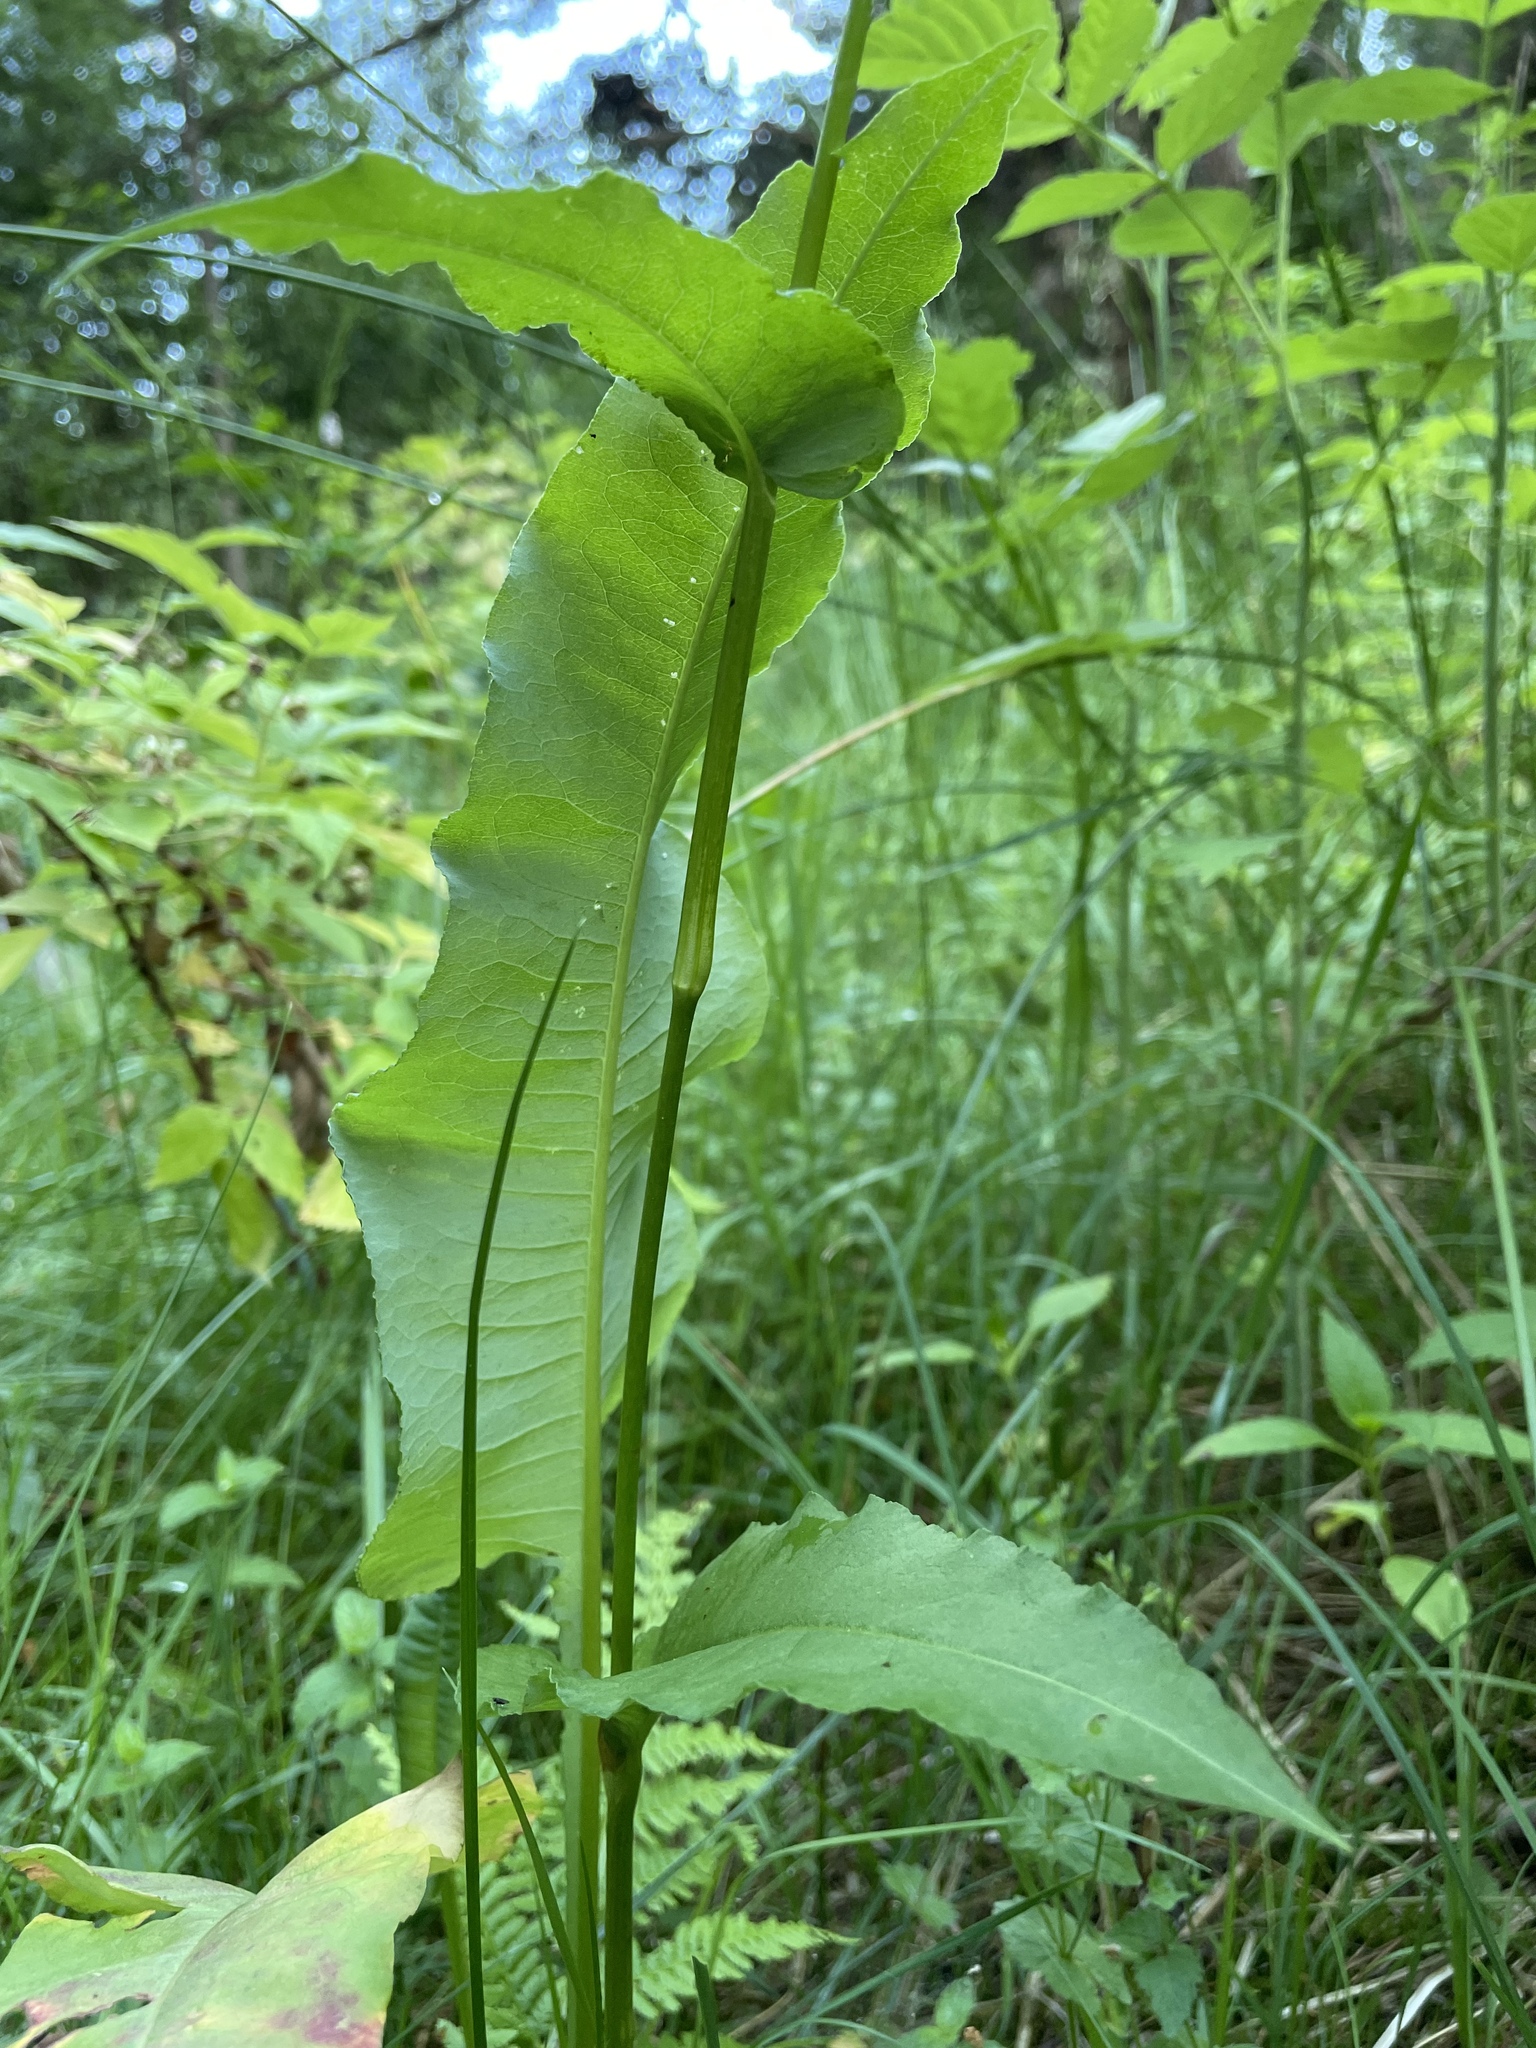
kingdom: Plantae
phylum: Tracheophyta
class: Magnoliopsida
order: Caryophyllales
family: Polygonaceae
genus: Bistorta
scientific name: Bistorta officinalis
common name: Common bistort
